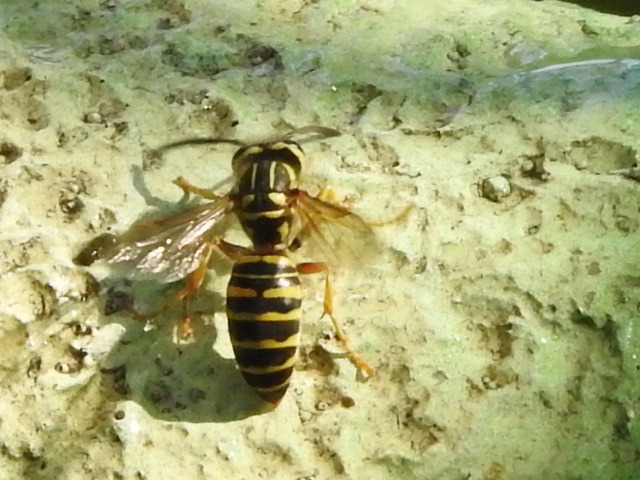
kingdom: Animalia
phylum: Arthropoda
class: Insecta
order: Hymenoptera
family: Vespidae
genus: Vespula
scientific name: Vespula squamosa
